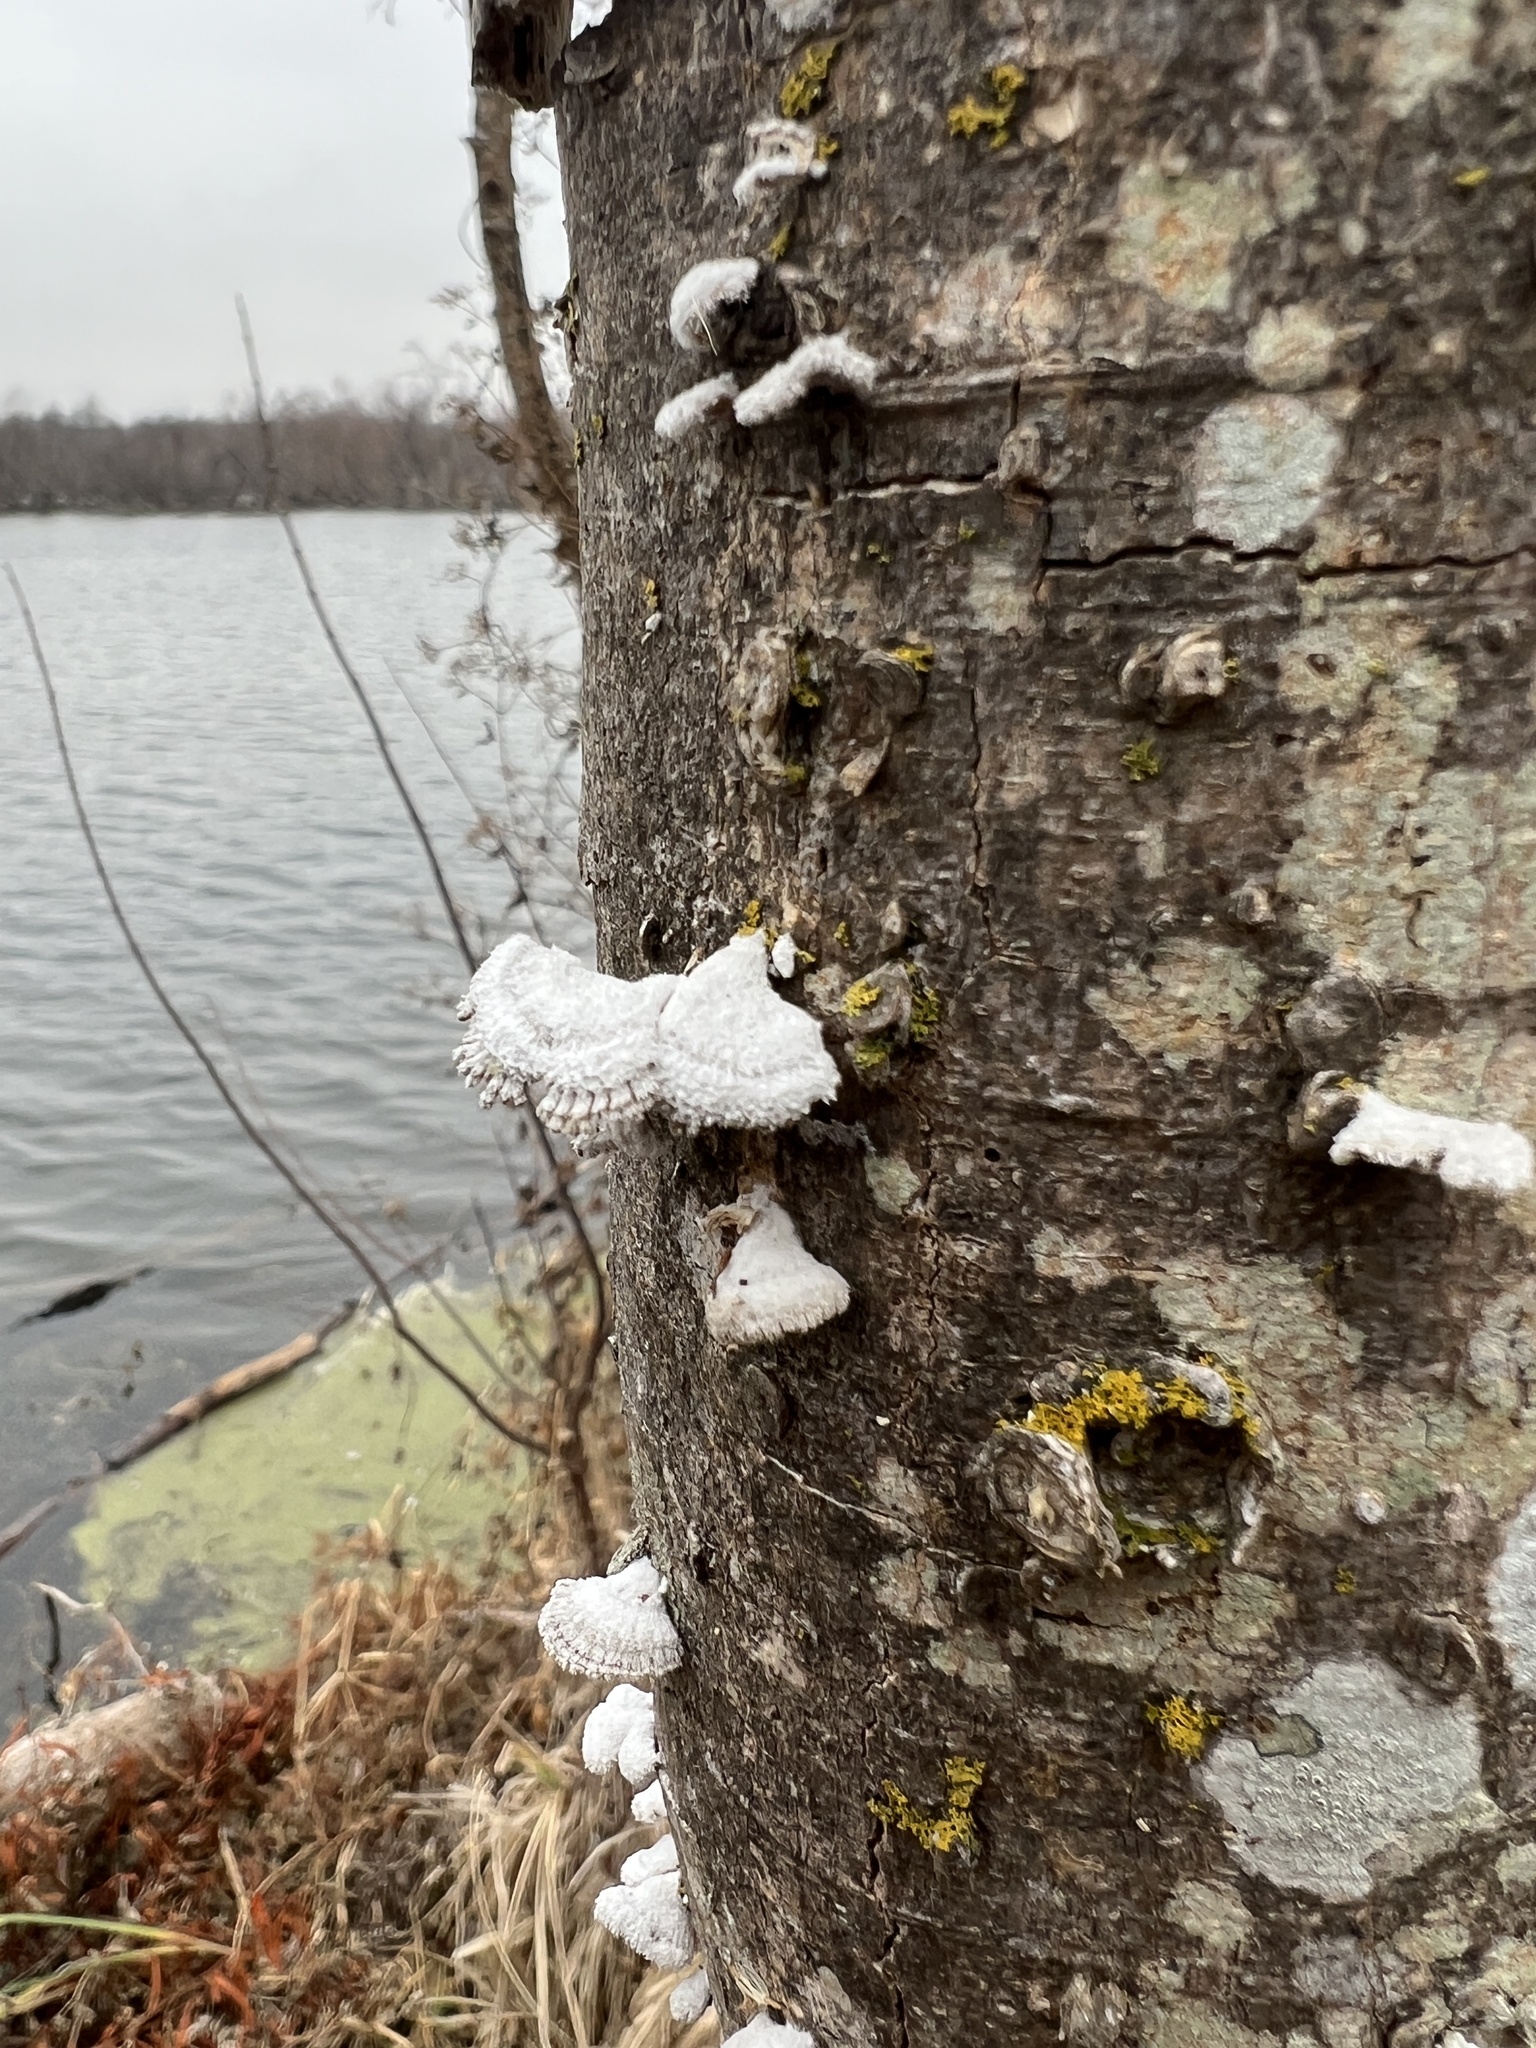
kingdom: Fungi
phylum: Basidiomycota
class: Agaricomycetes
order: Agaricales
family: Schizophyllaceae
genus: Schizophyllum
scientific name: Schizophyllum commune
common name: Common porecrust
